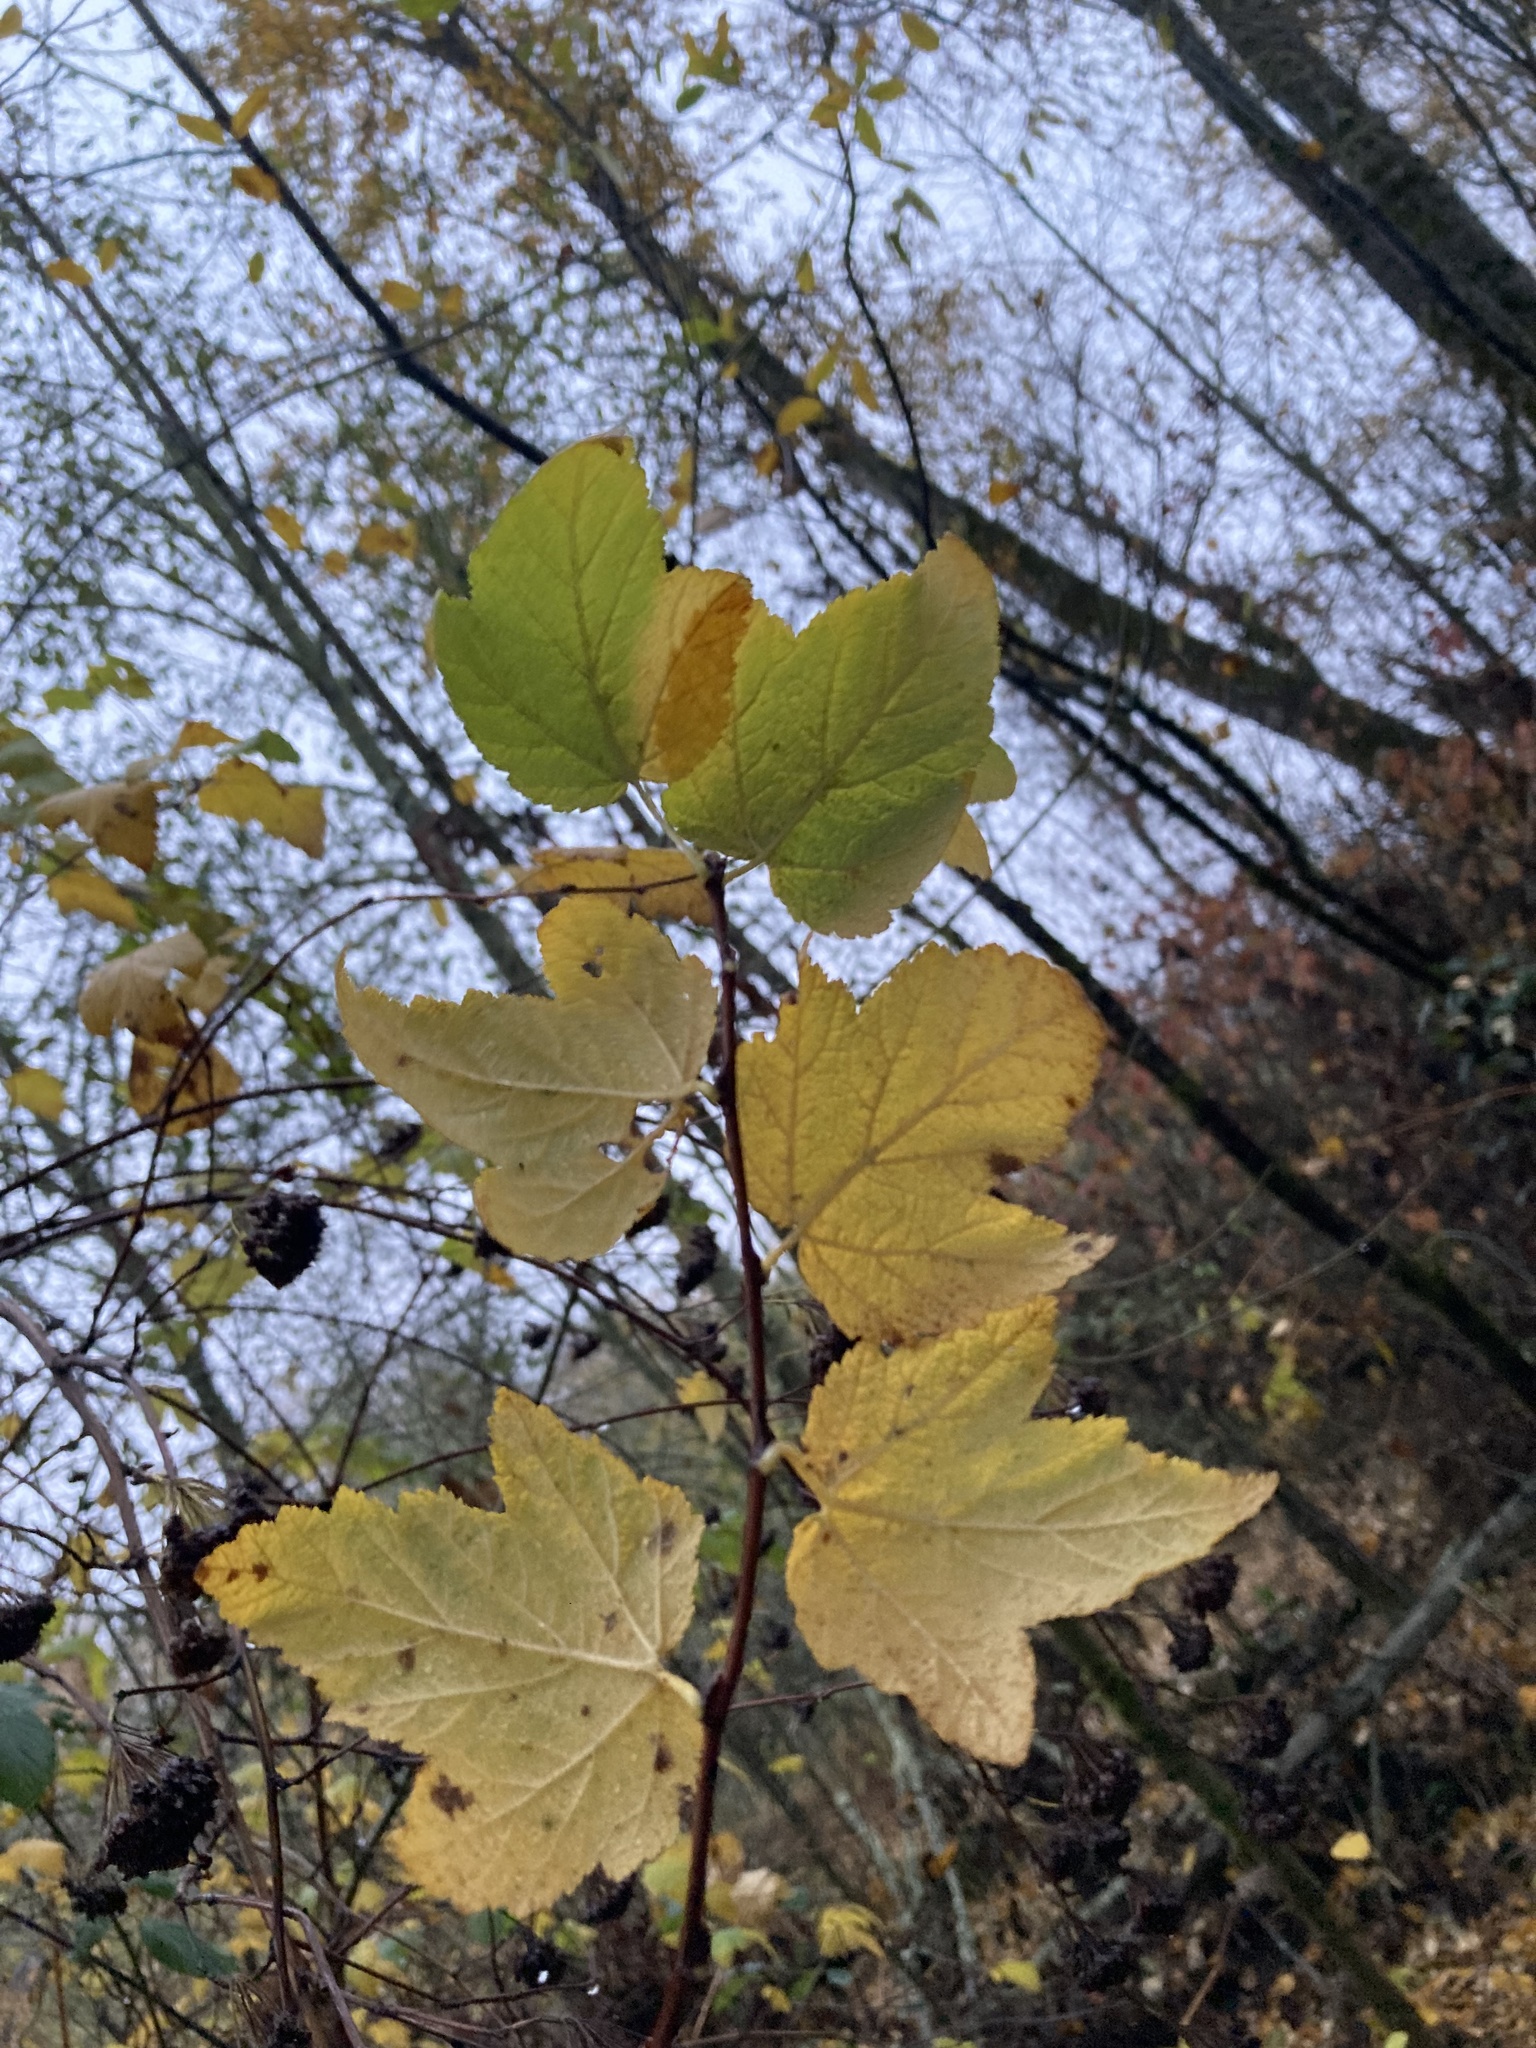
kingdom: Plantae
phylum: Tracheophyta
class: Magnoliopsida
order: Rosales
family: Rosaceae
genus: Physocarpus
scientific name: Physocarpus capitatus
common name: Pacific ninebark
